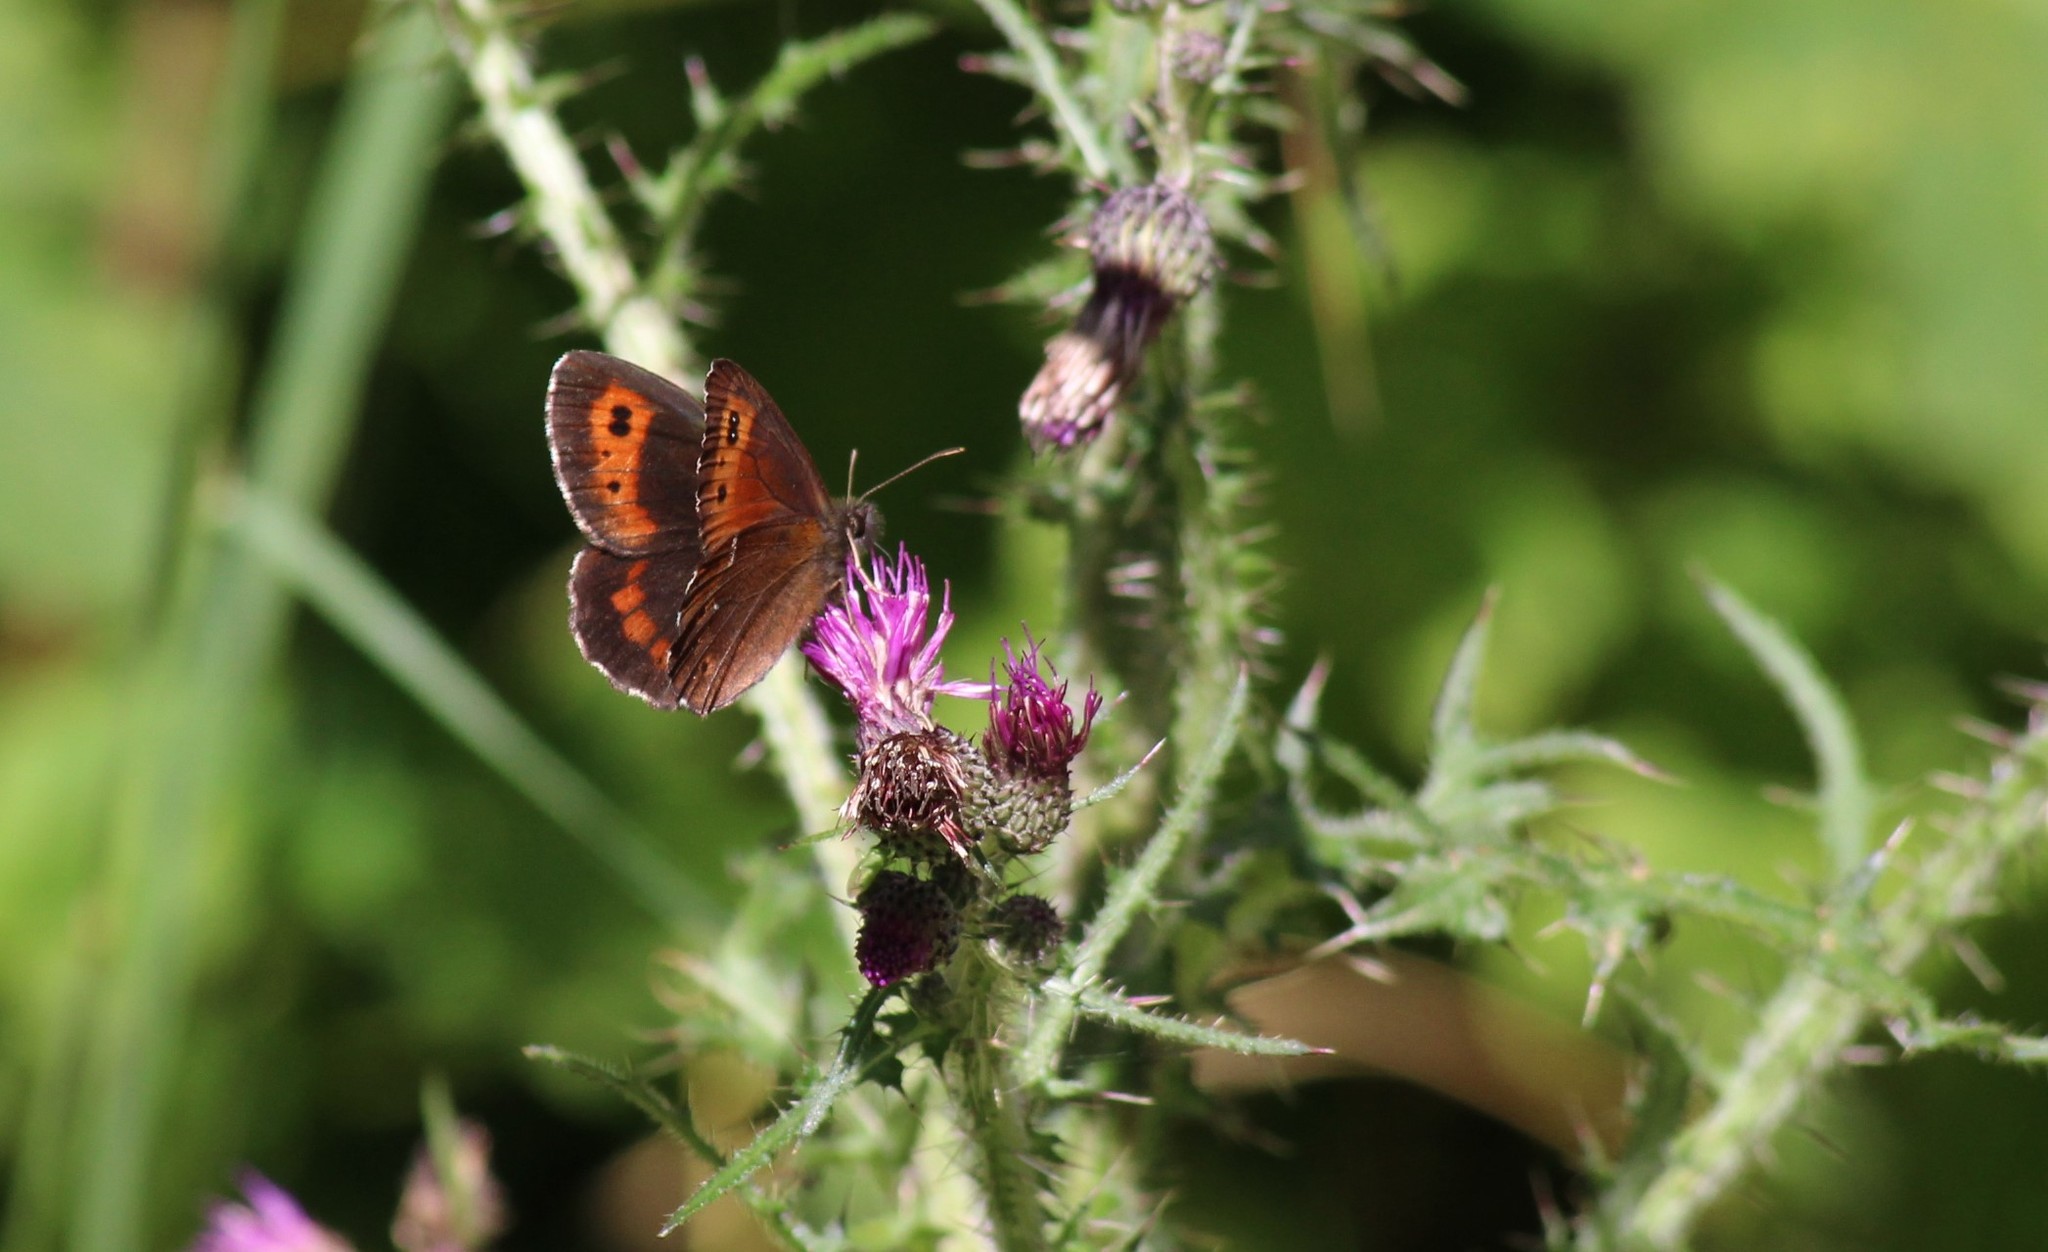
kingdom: Animalia
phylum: Arthropoda
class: Insecta
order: Lepidoptera
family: Nymphalidae
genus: Erebia
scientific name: Erebia ligea
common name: Arran brown
